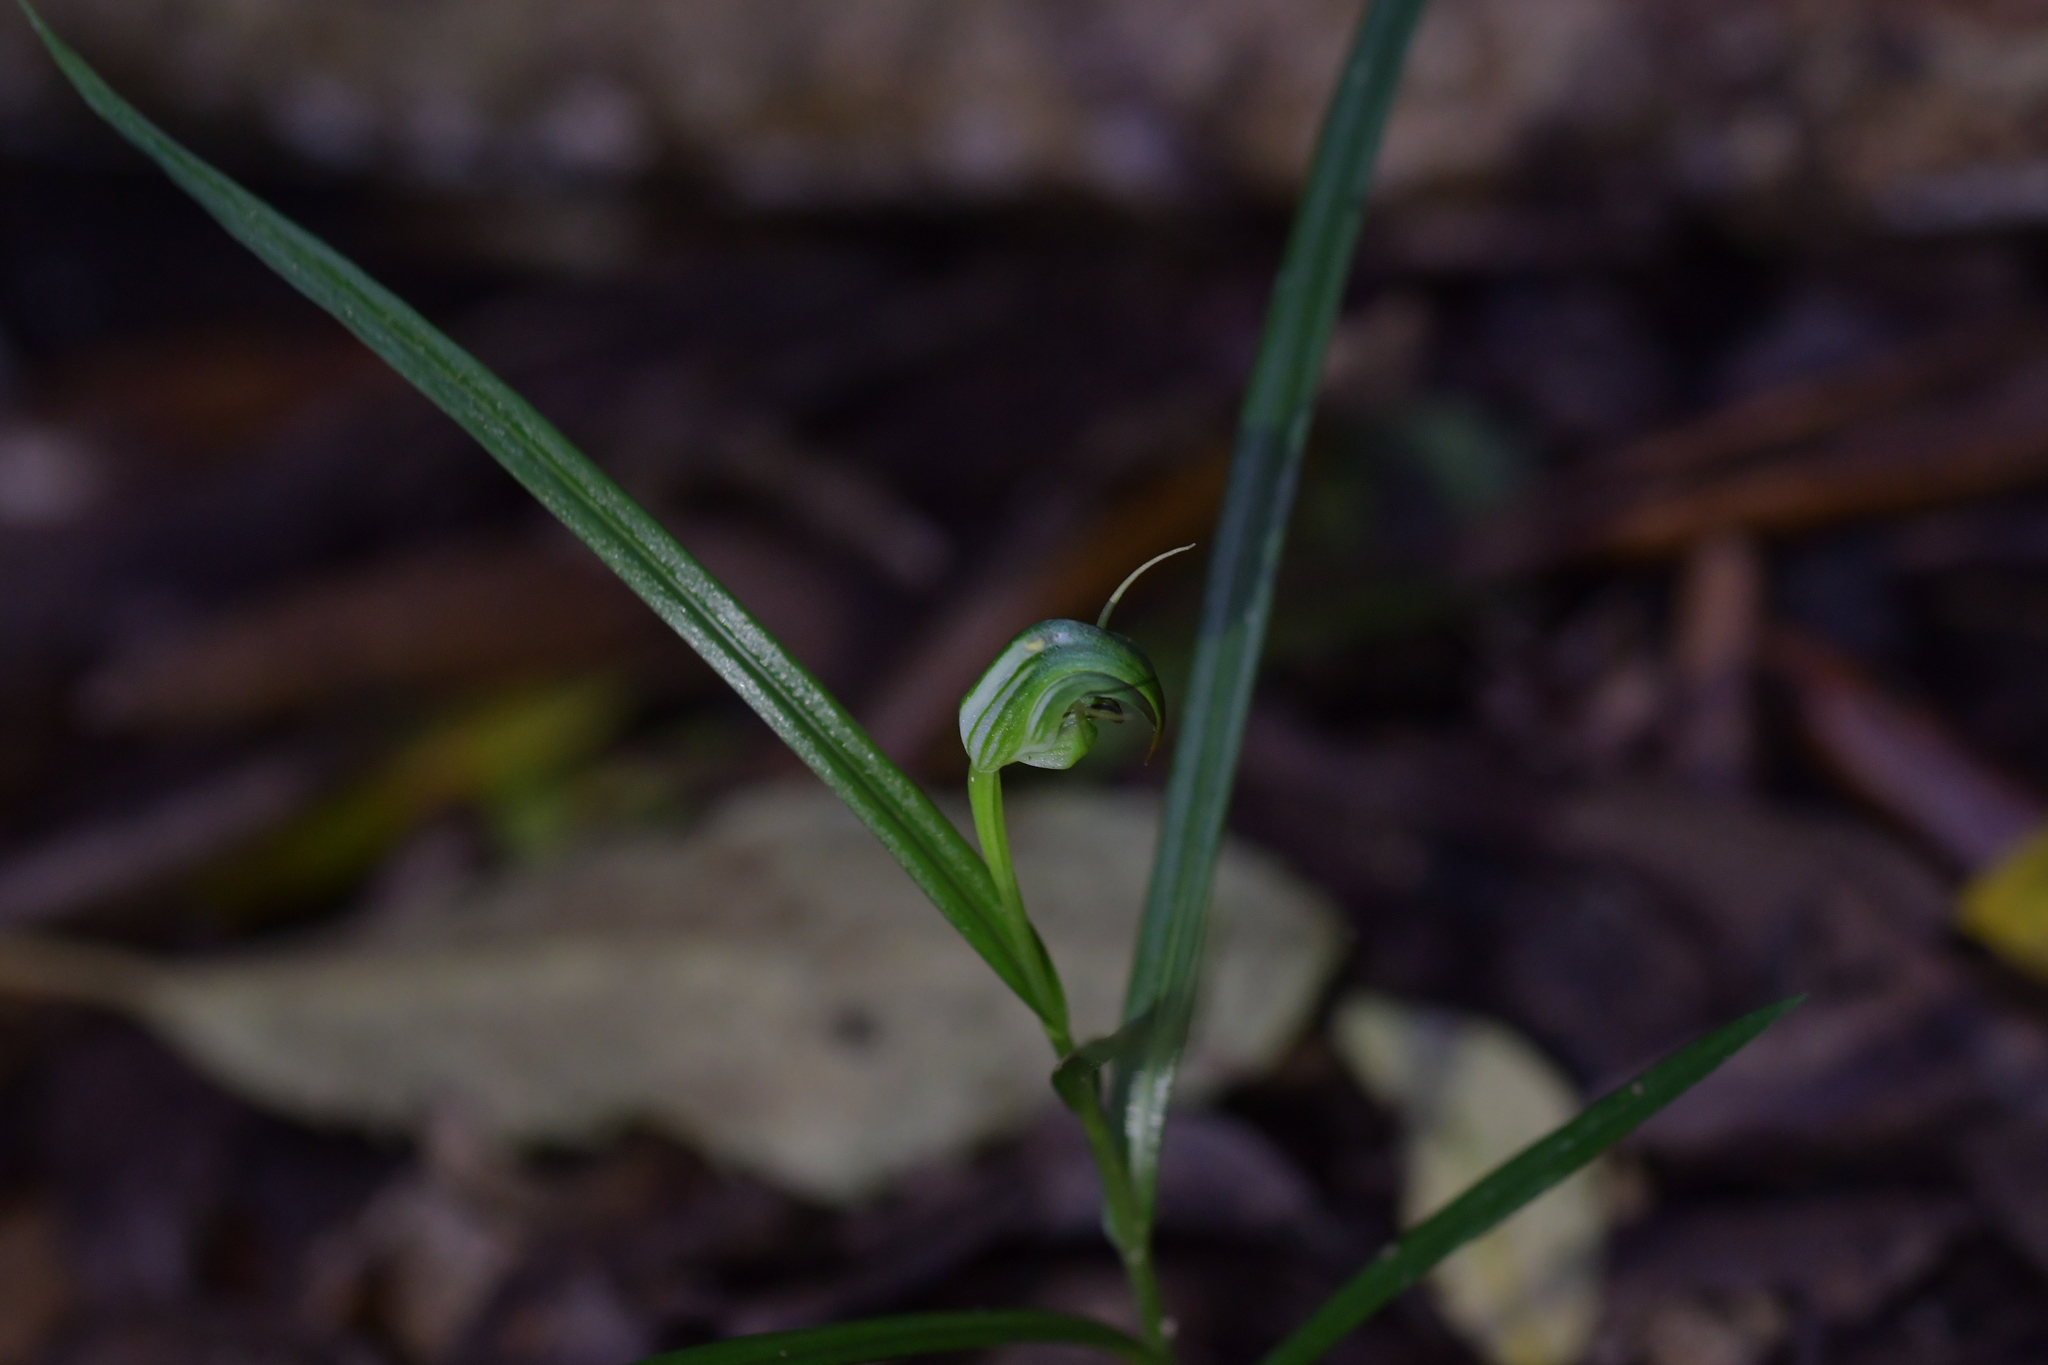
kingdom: Plantae
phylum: Tracheophyta
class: Liliopsida
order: Asparagales
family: Orchidaceae
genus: Pterostylis
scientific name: Pterostylis graminea
